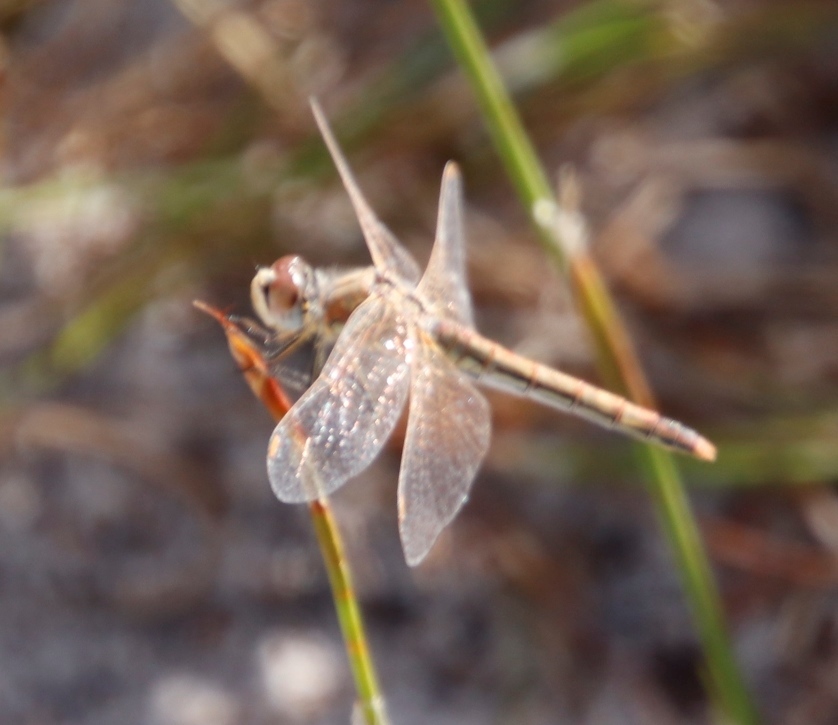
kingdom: Animalia
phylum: Arthropoda
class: Insecta
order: Odonata
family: Libellulidae
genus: Sympetrum
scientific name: Sympetrum fonscolombii
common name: Red-veined darter
